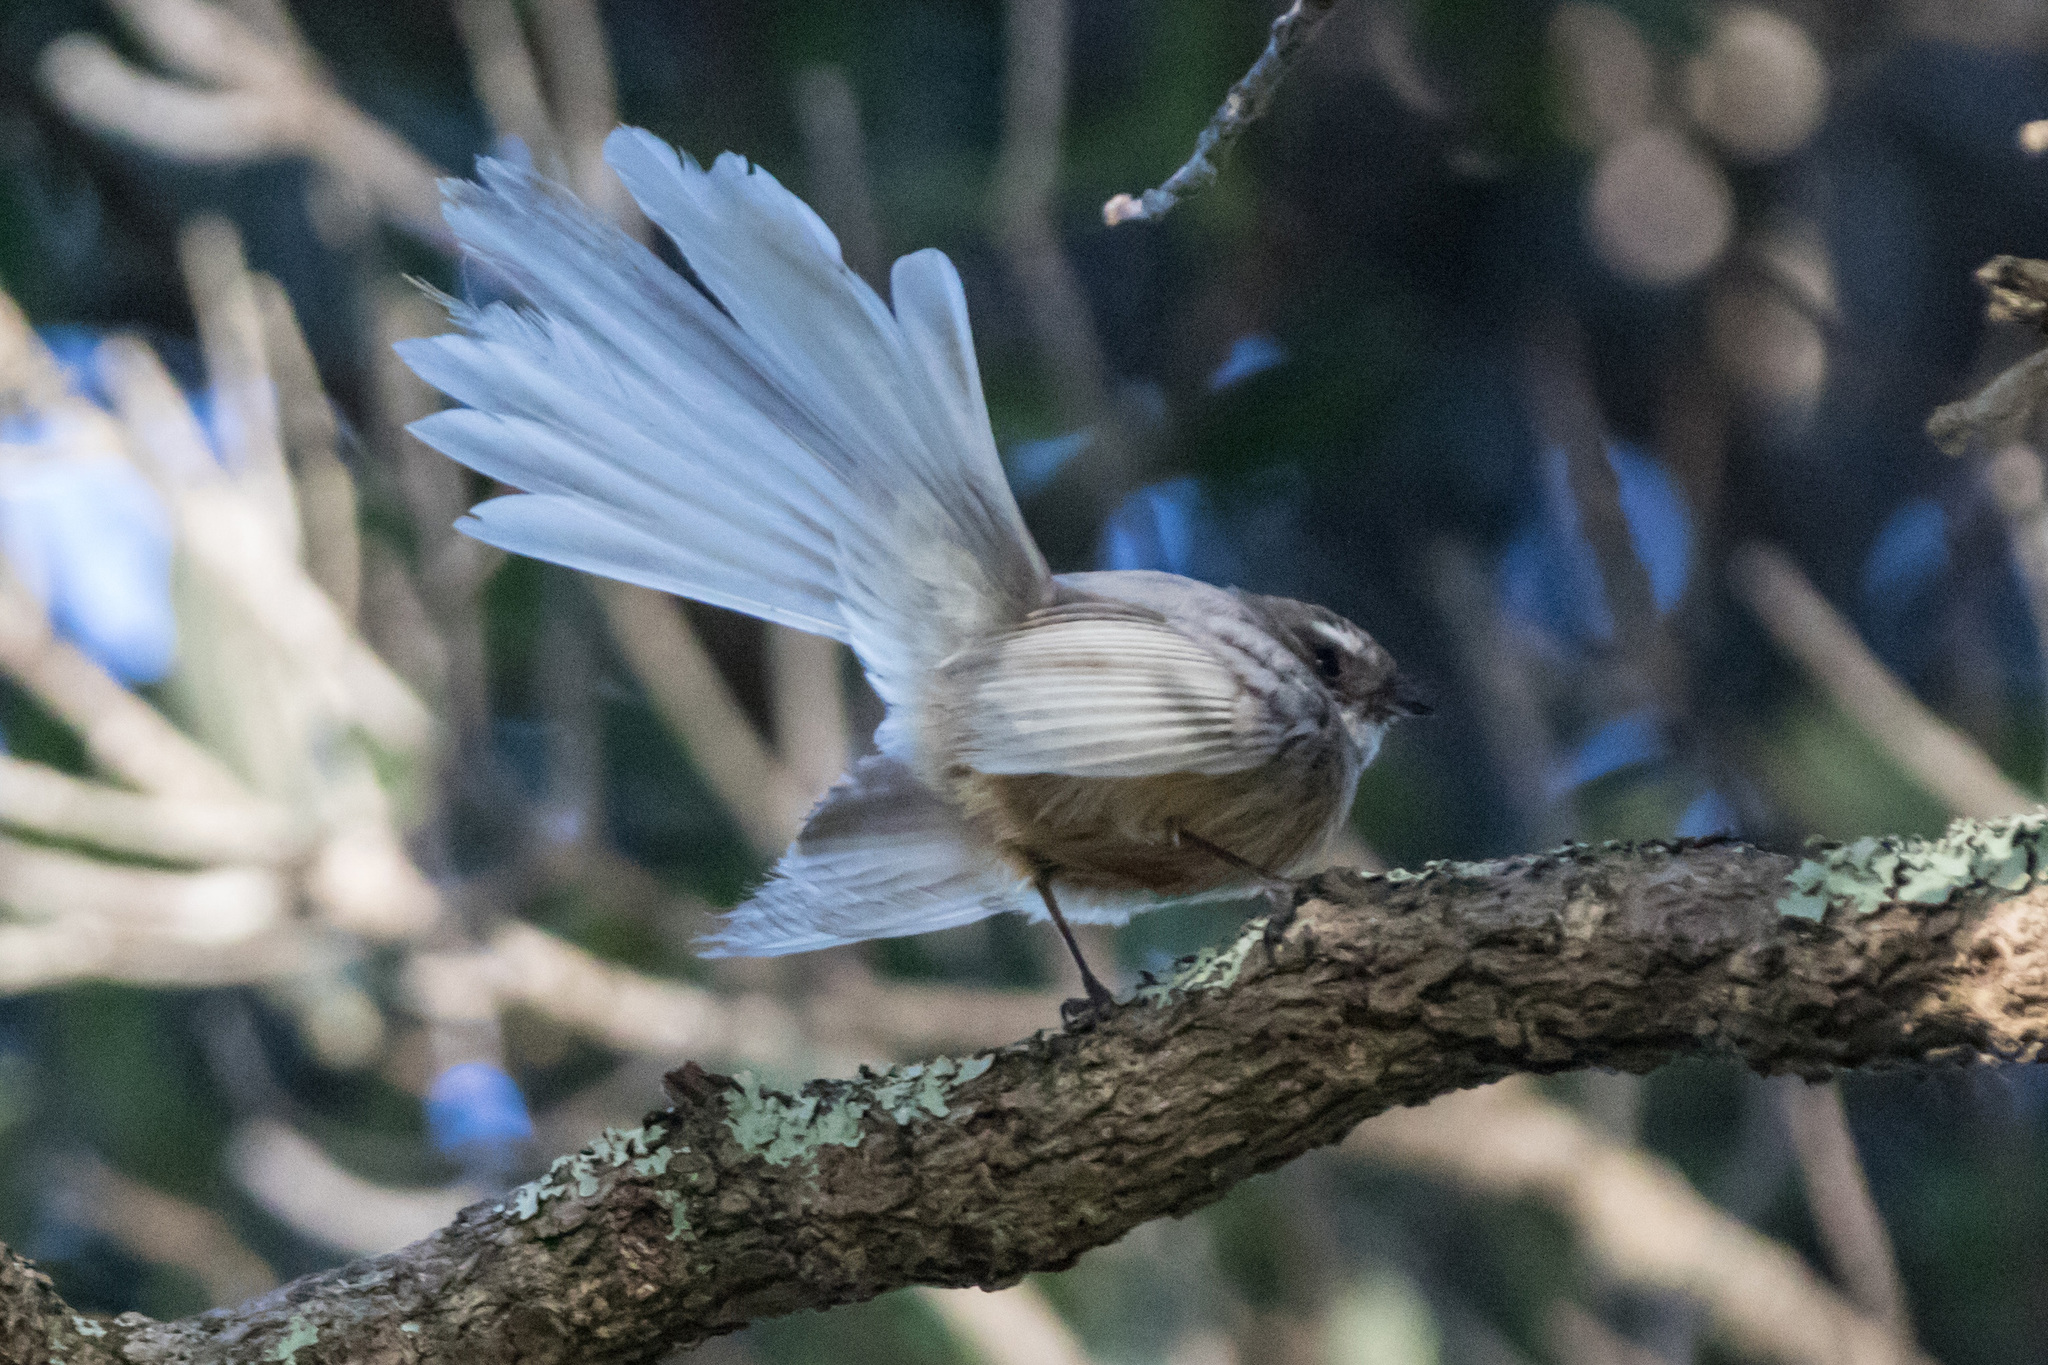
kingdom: Animalia
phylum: Chordata
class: Aves
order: Passeriformes
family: Rhipiduridae
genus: Rhipidura
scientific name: Rhipidura fuliginosa
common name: New zealand fantail
